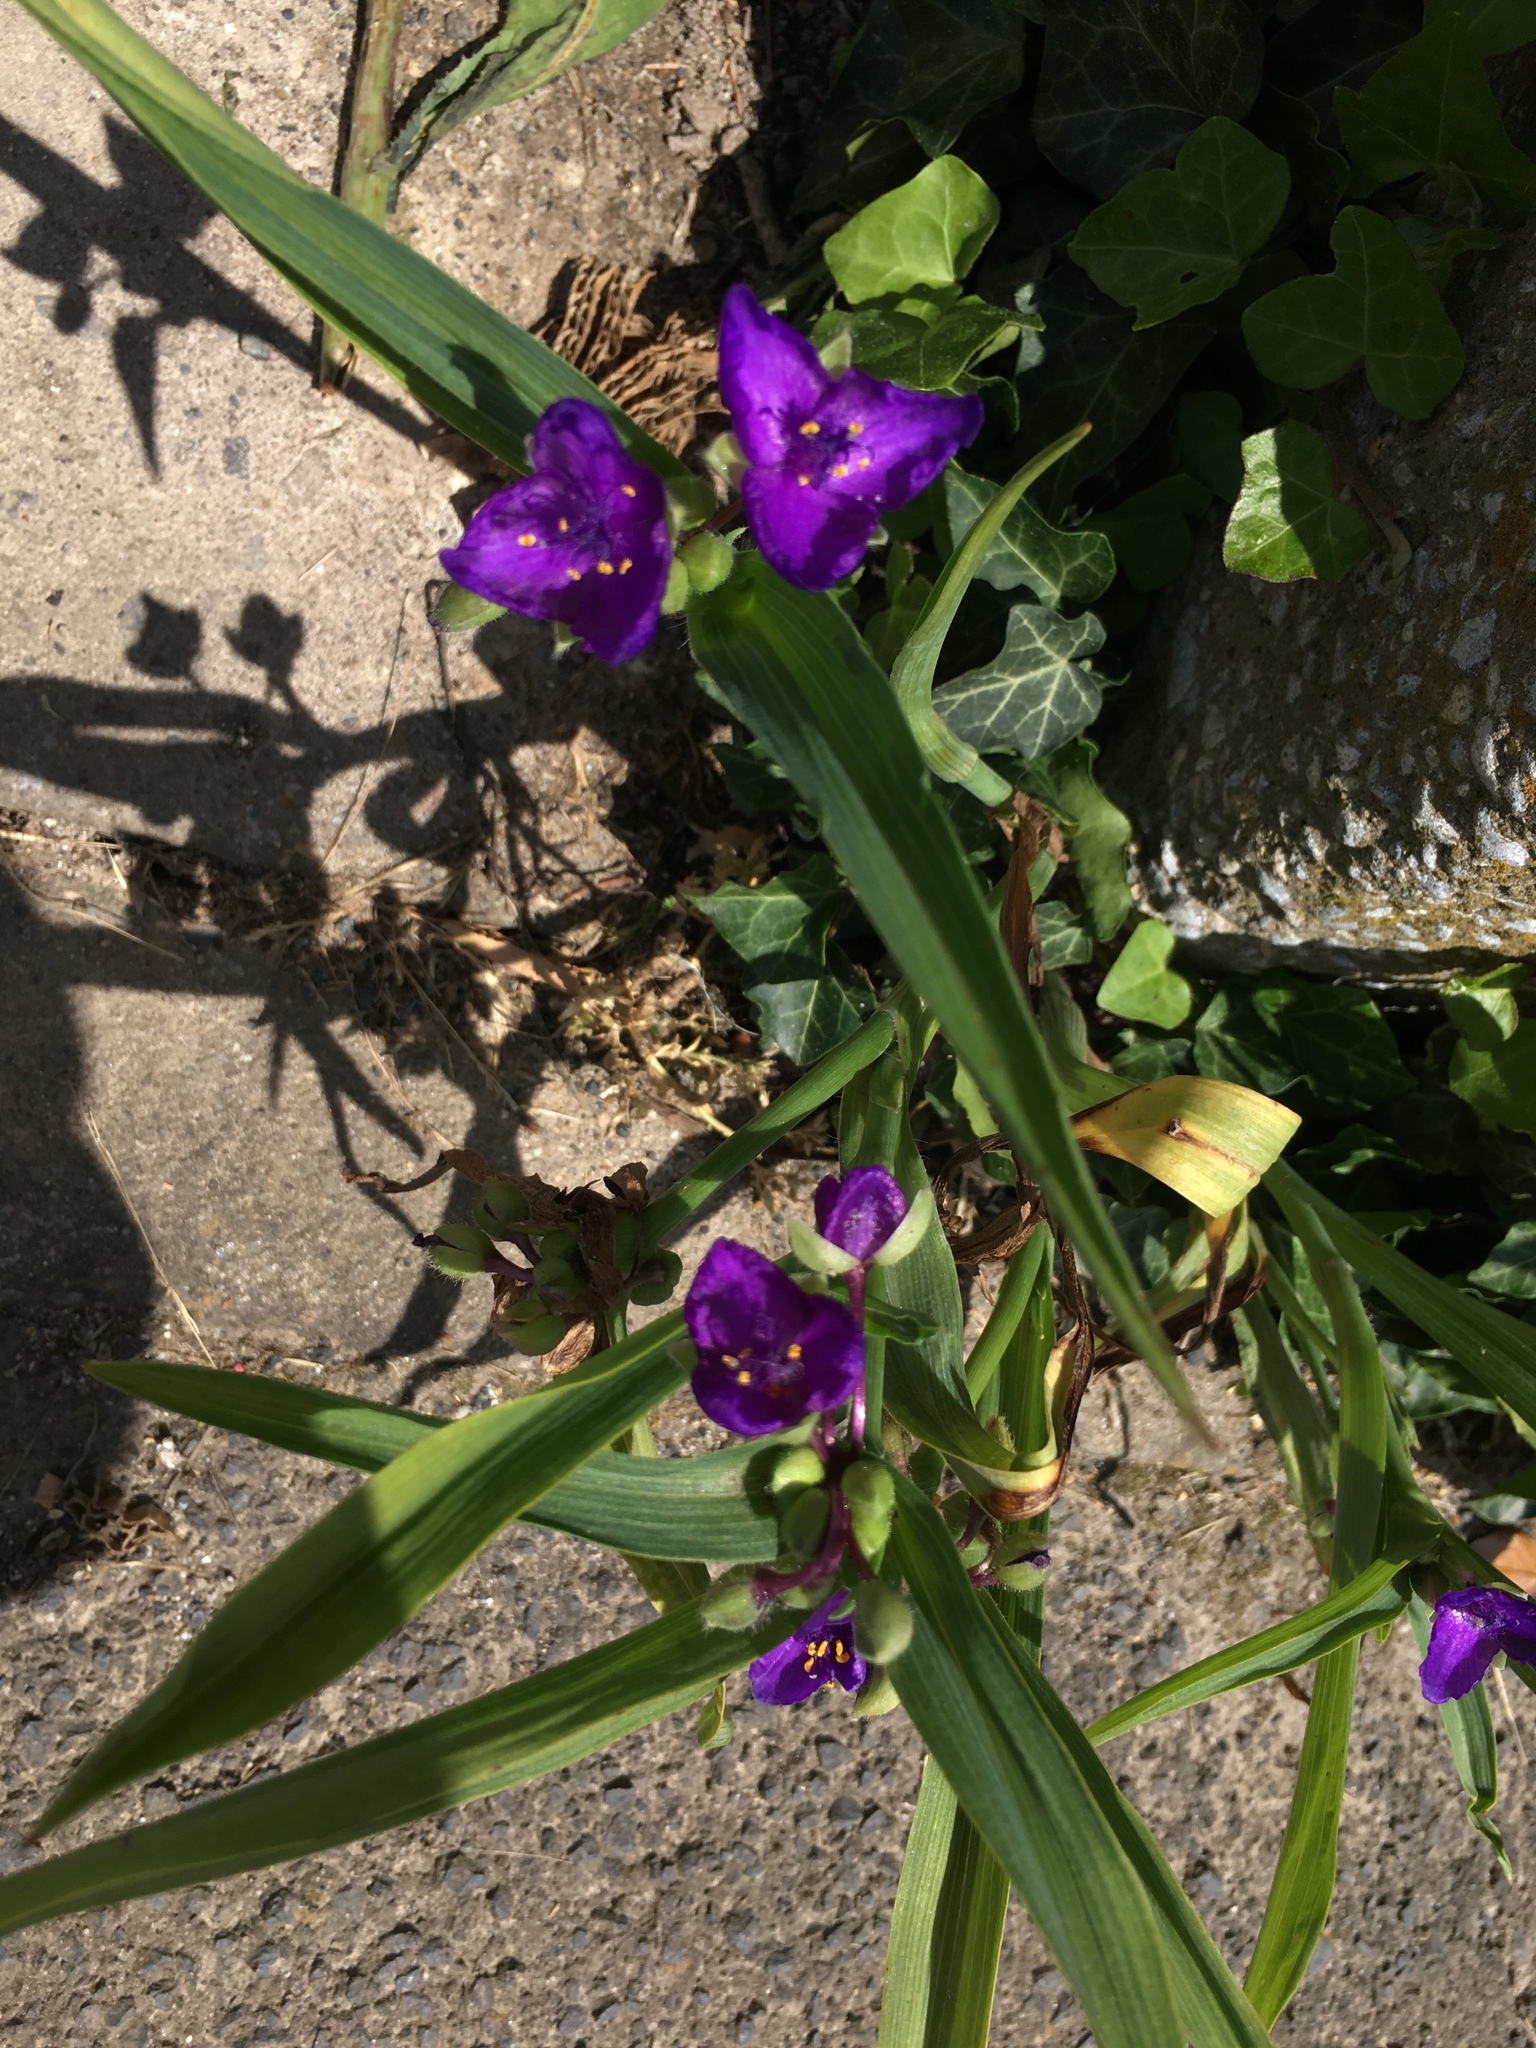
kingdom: Plantae
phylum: Tracheophyta
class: Liliopsida
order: Commelinales
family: Commelinaceae
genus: Tradescantia
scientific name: Tradescantia virginiana
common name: Spiderwort
